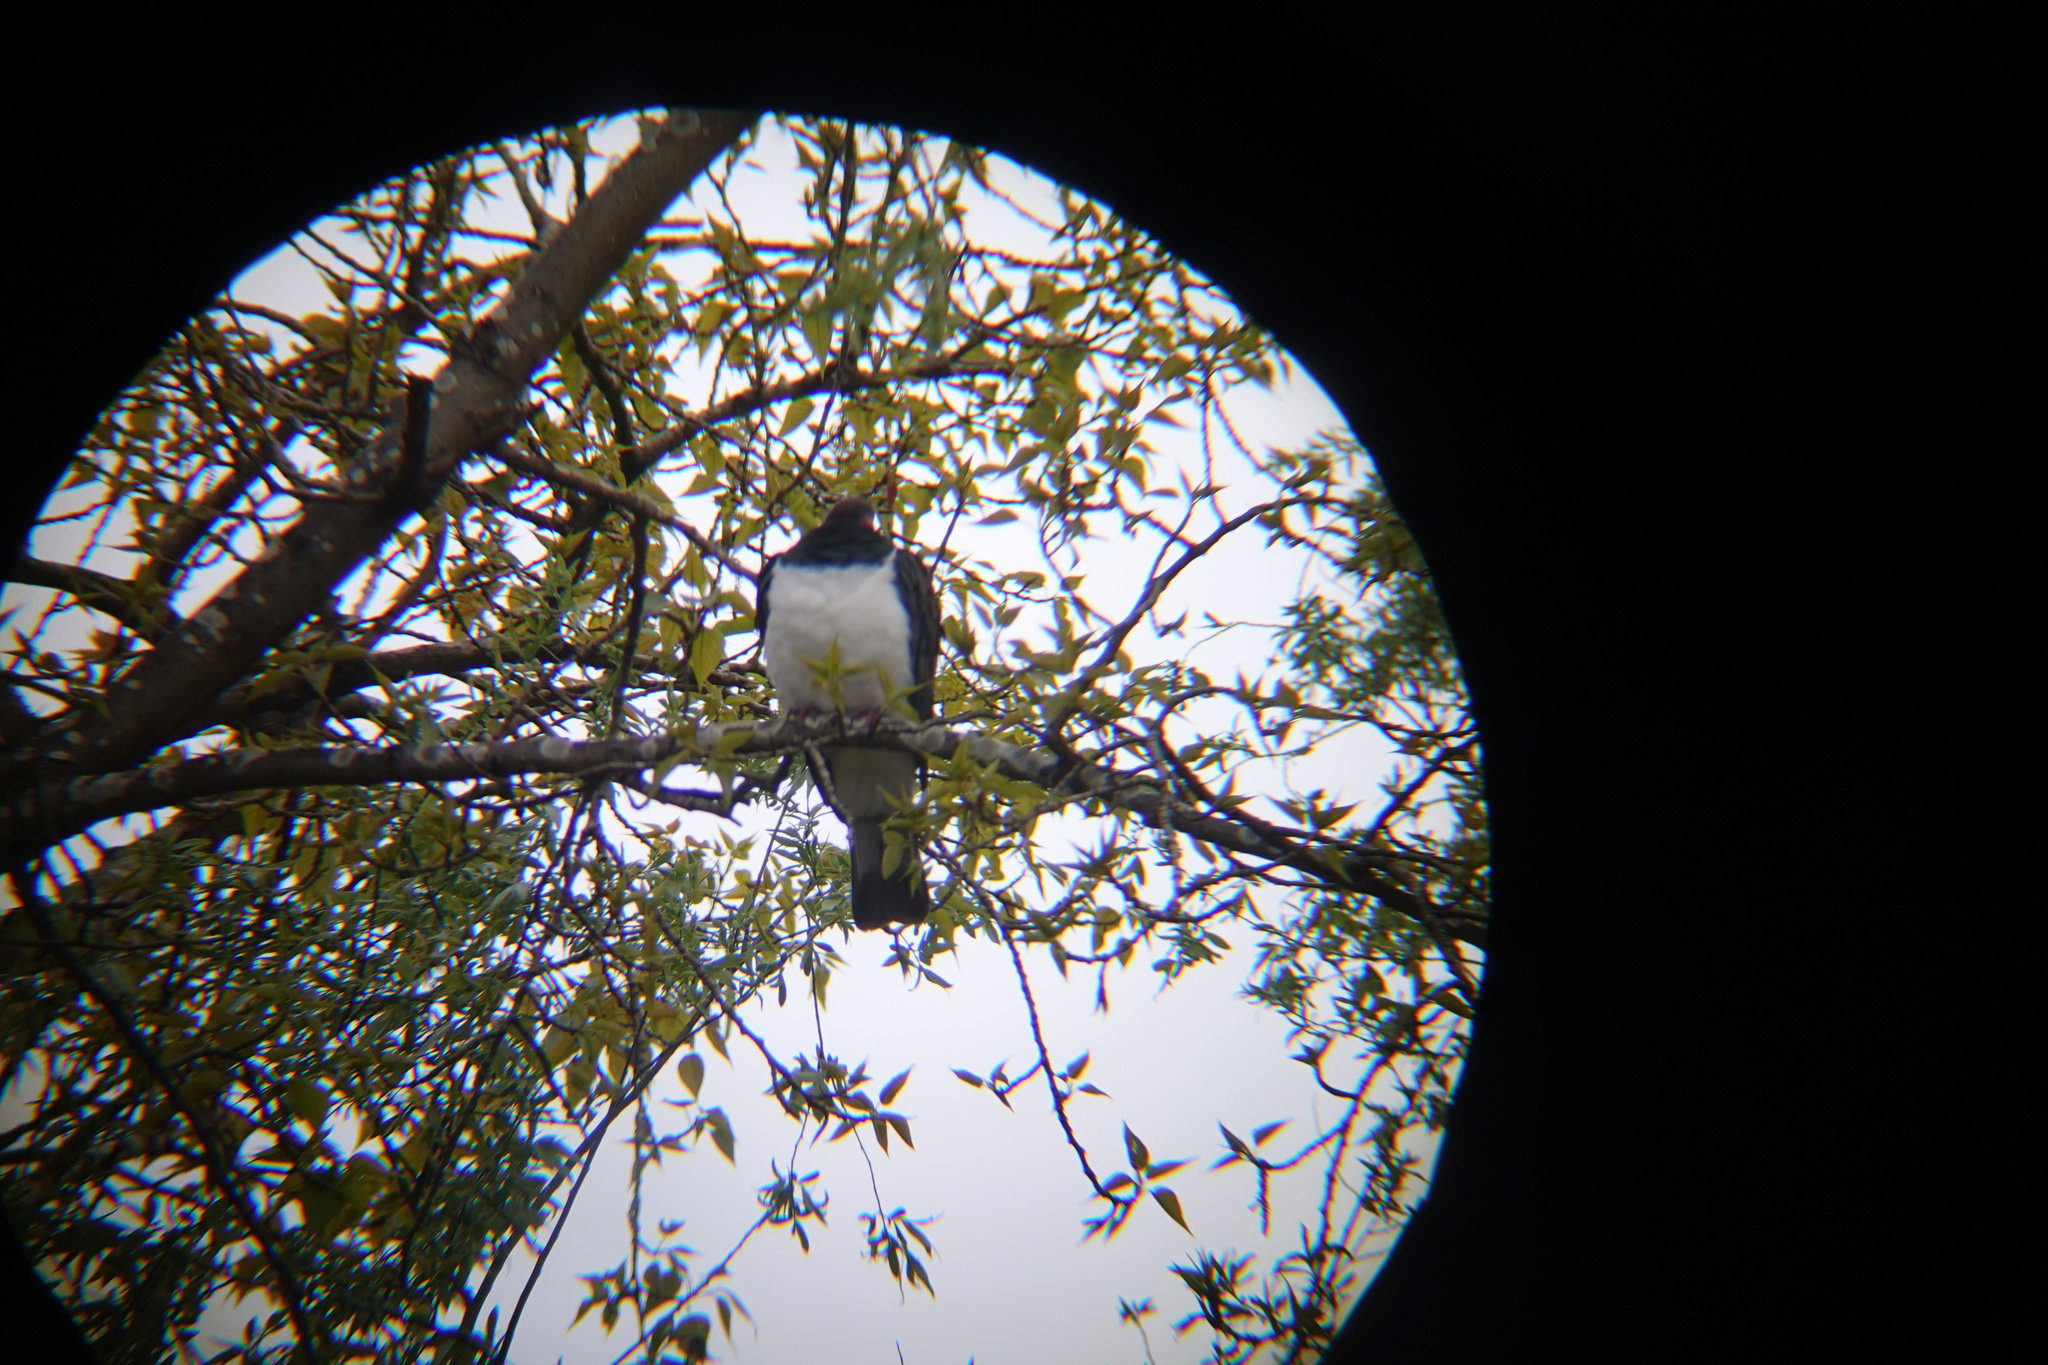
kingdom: Animalia
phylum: Chordata
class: Aves
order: Columbiformes
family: Columbidae
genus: Hemiphaga
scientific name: Hemiphaga novaeseelandiae
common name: New zealand pigeon
